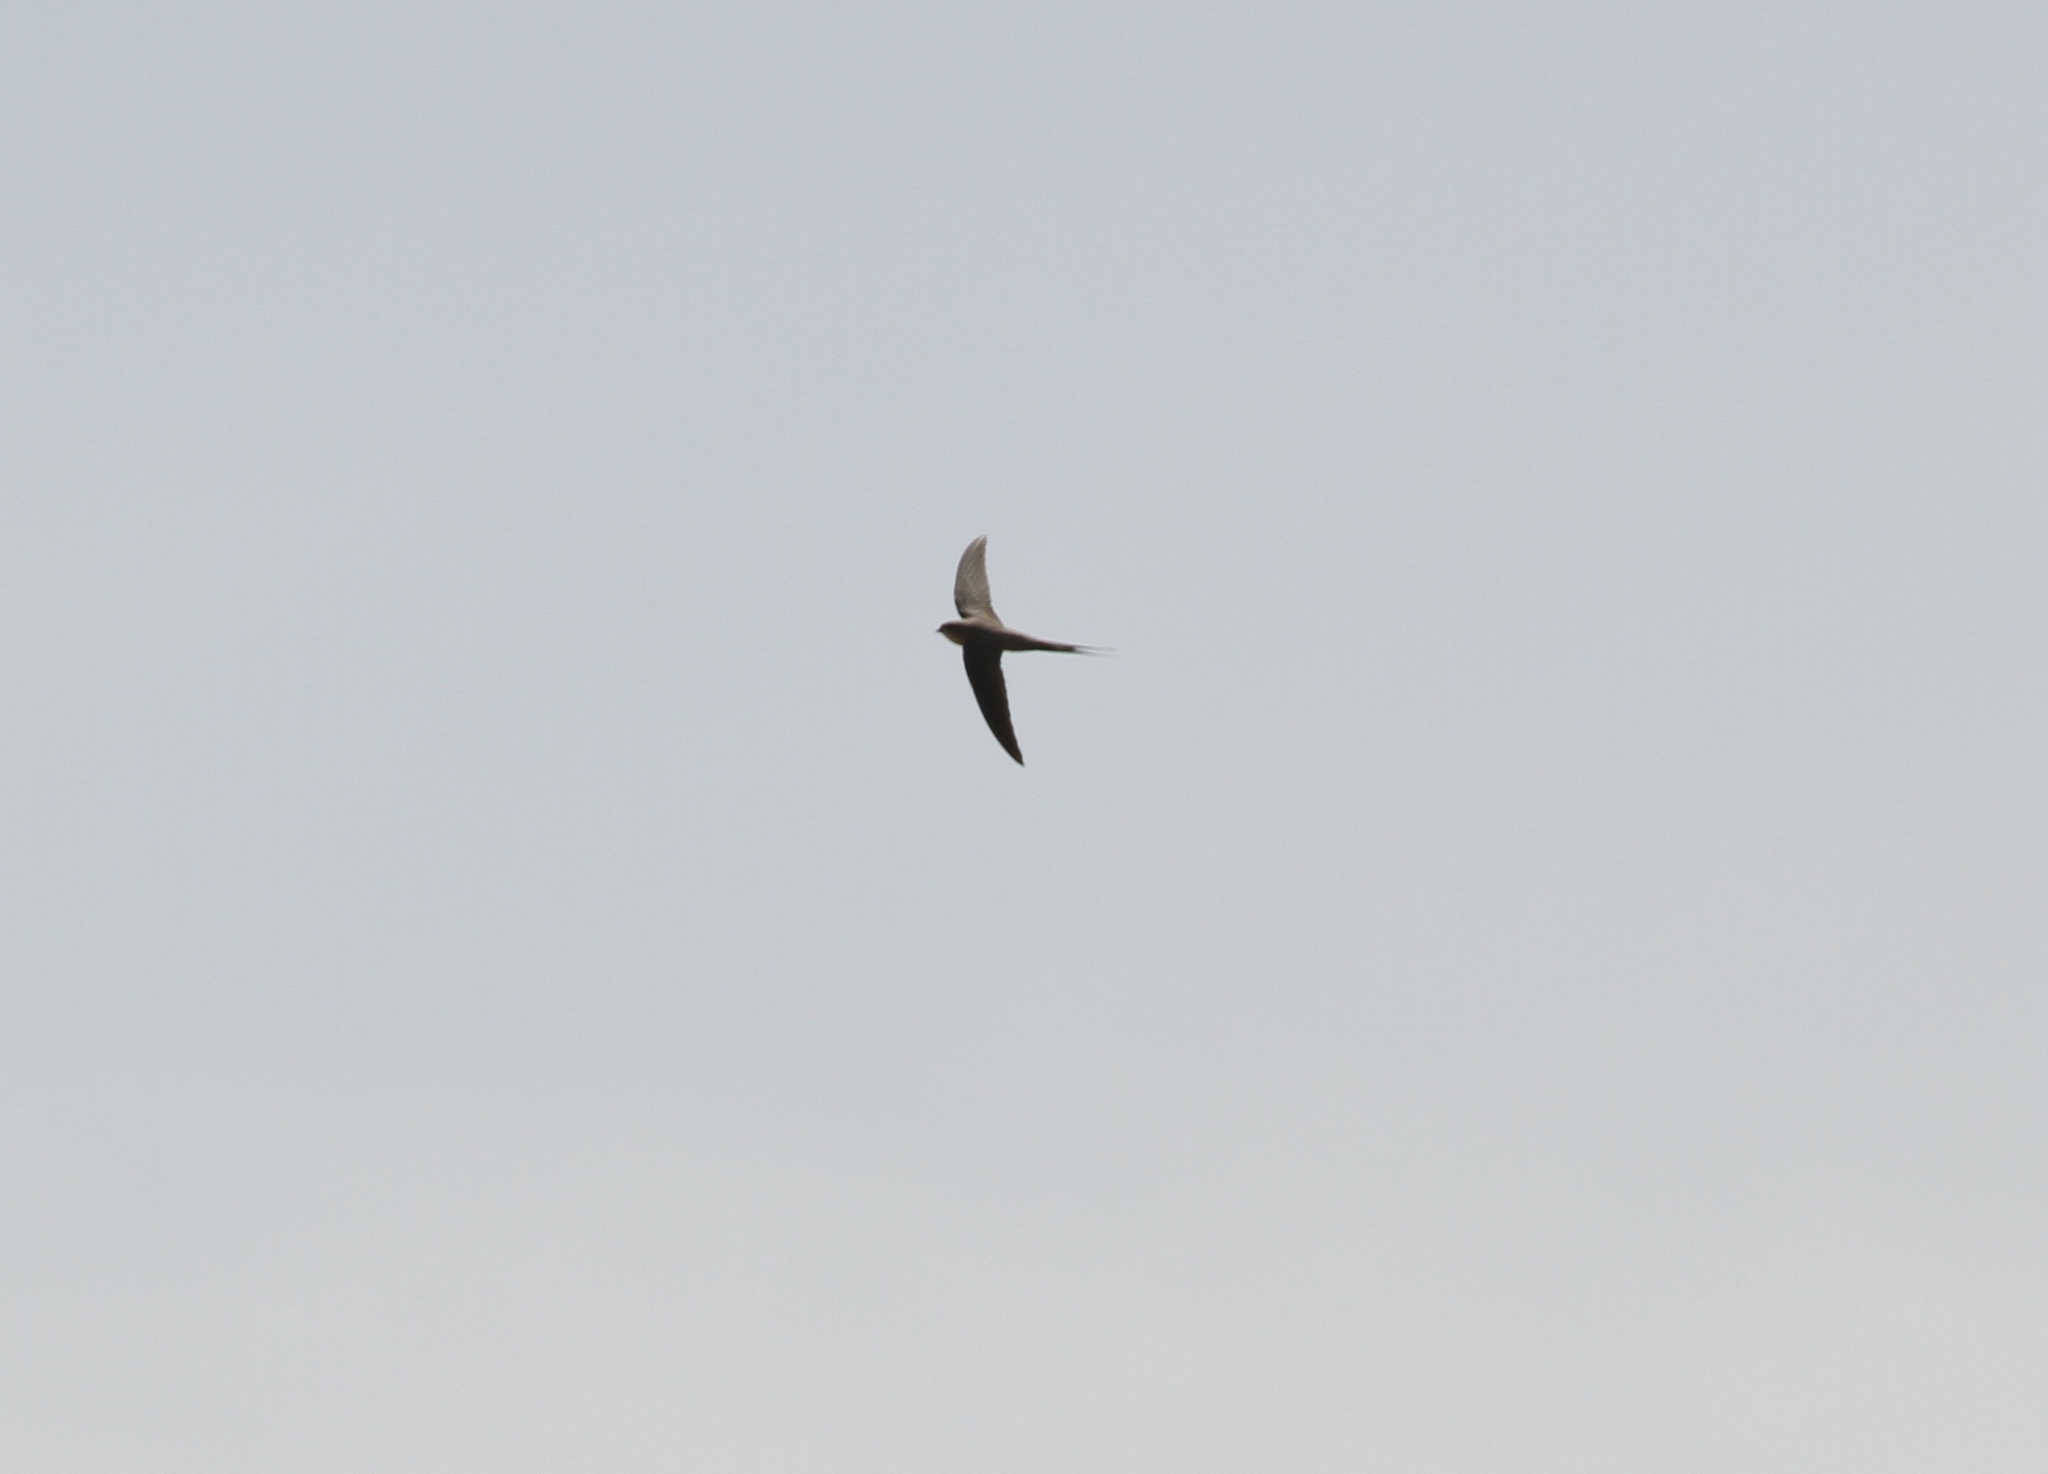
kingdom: Animalia
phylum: Chordata
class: Aves
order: Apodiformes
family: Apodidae
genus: Cypsiurus
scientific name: Cypsiurus parvus
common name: African palm swift
